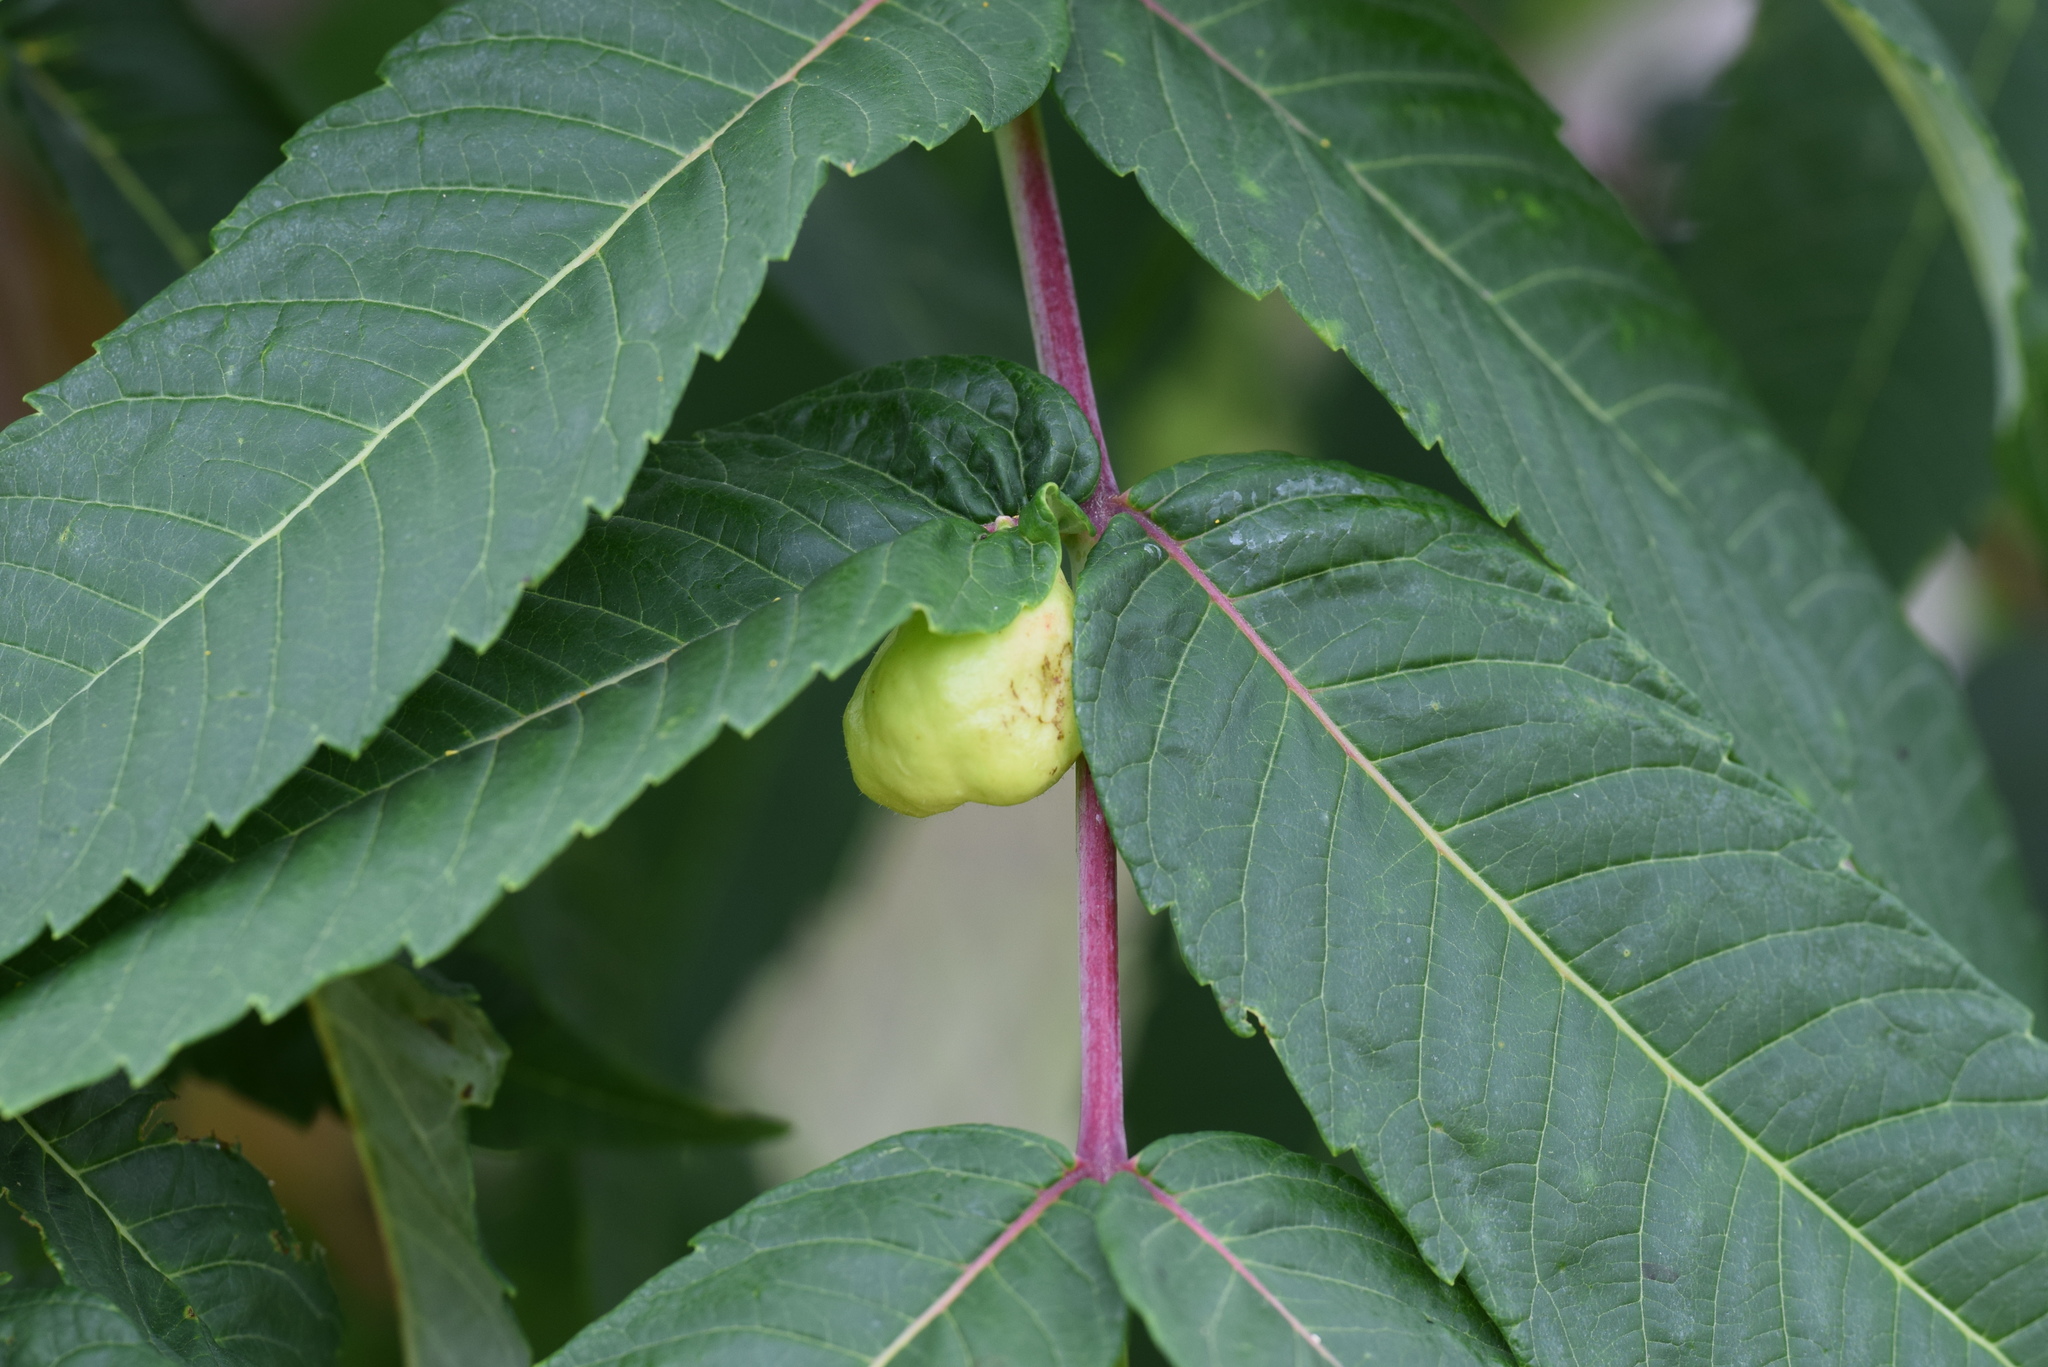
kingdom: Animalia
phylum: Arthropoda
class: Insecta
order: Hemiptera
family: Aphididae
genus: Melaphis
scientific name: Melaphis rhois
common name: Sumac gall aphid
